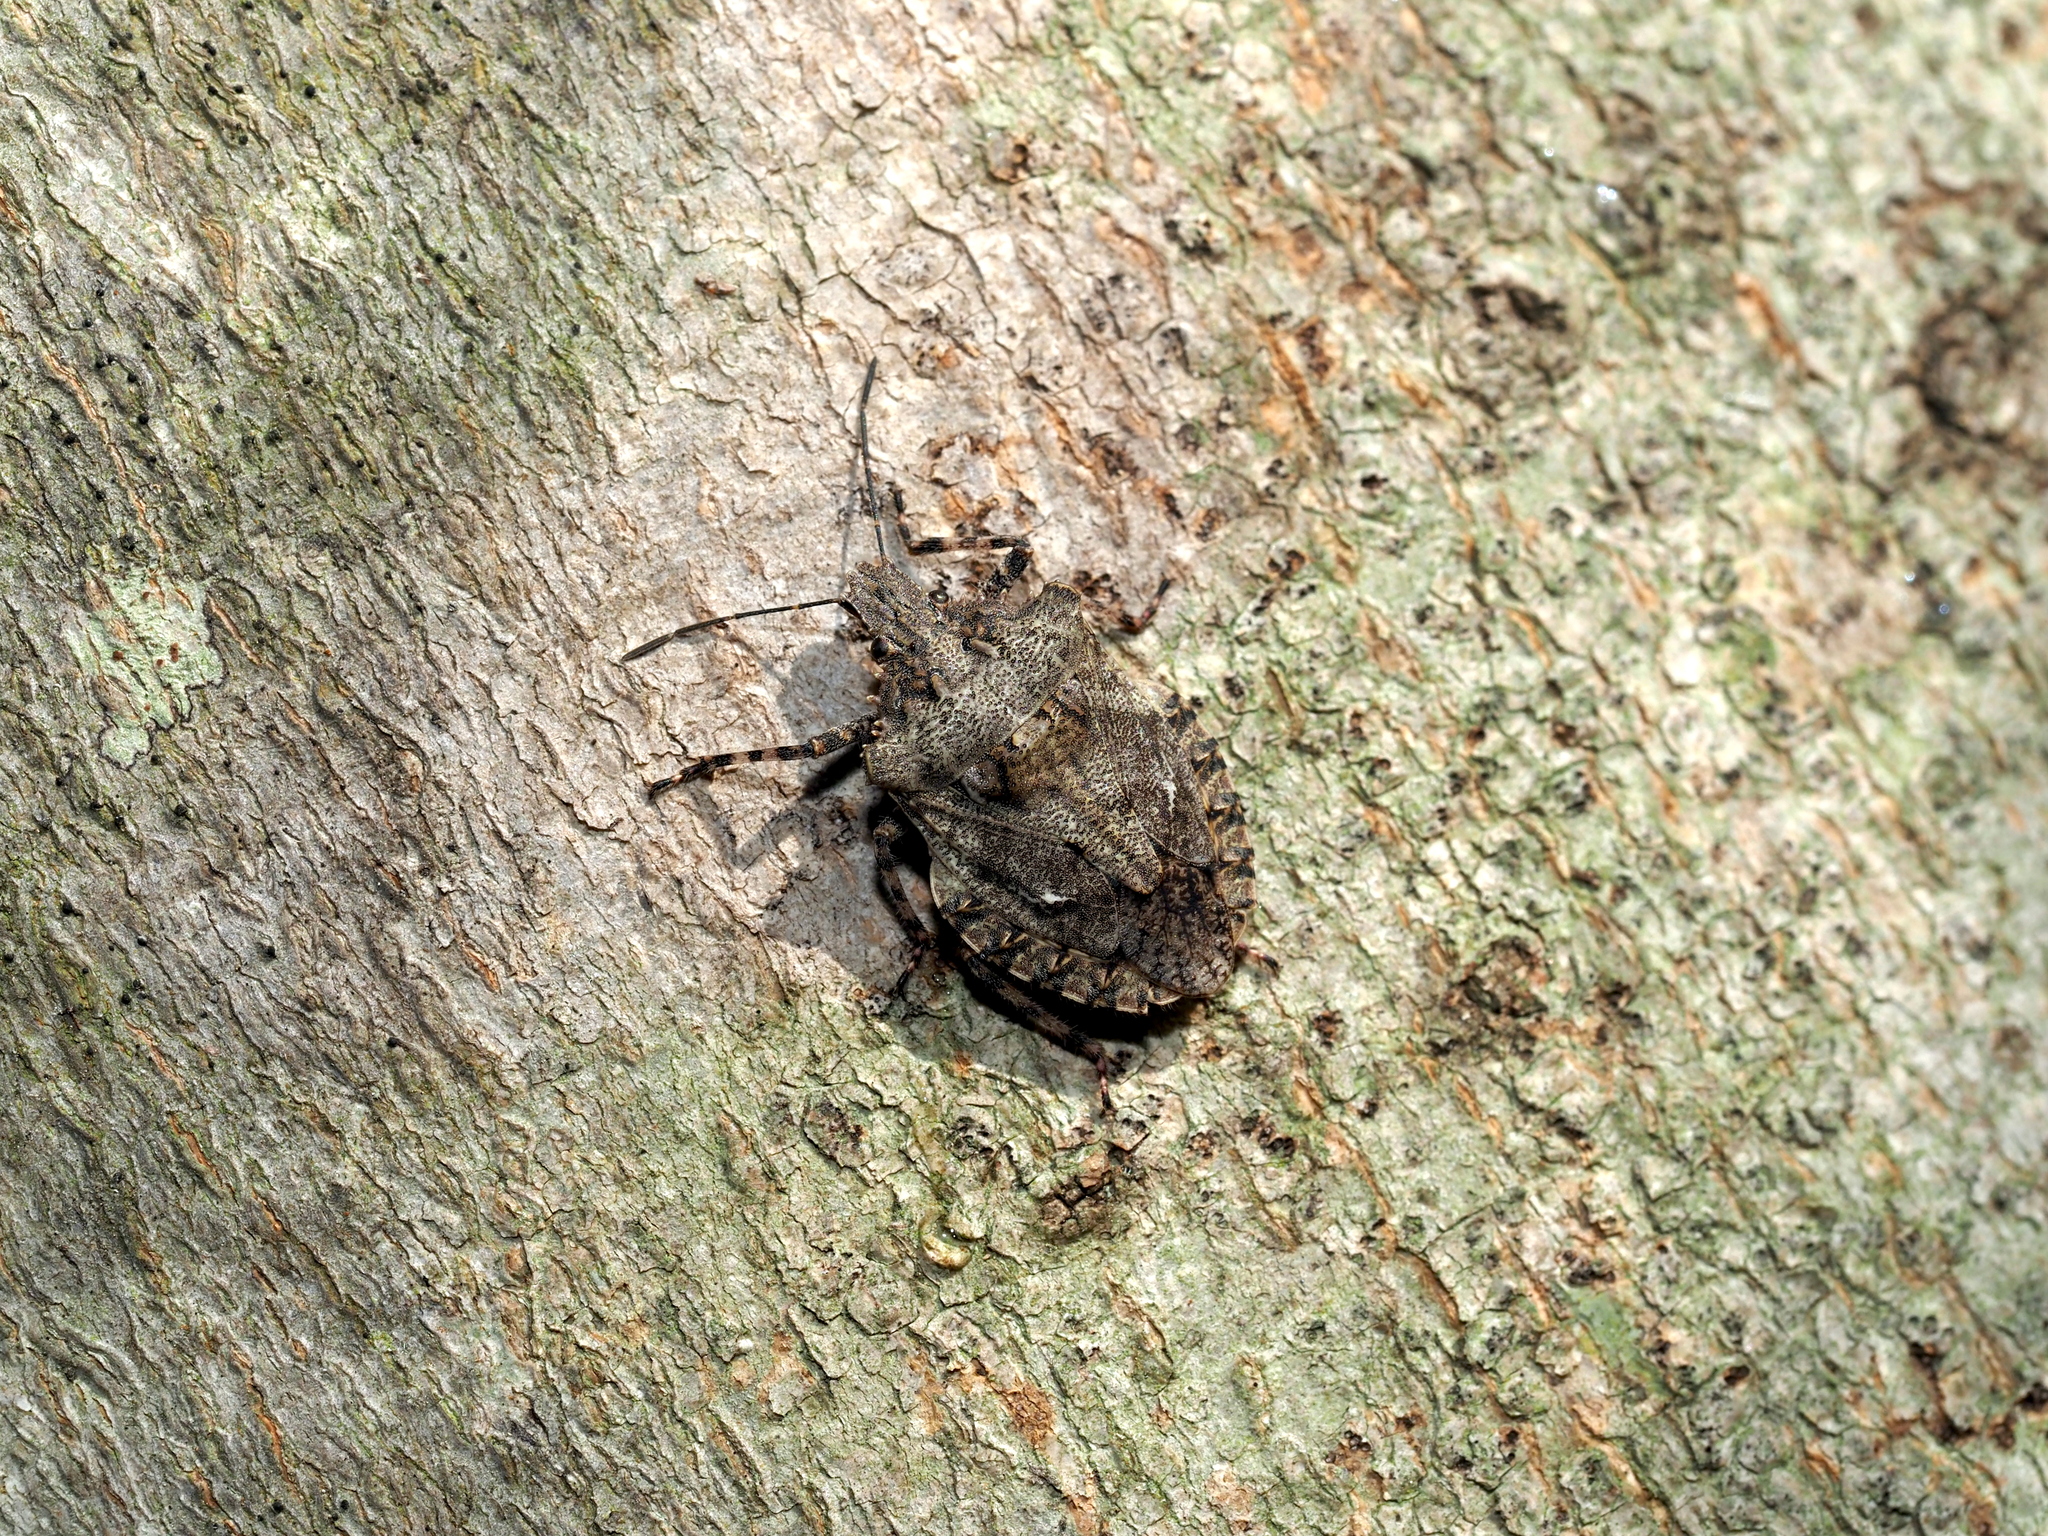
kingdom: Animalia
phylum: Arthropoda
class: Insecta
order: Hemiptera
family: Pentatomidae
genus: Brochymena
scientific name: Brochymena arborea
